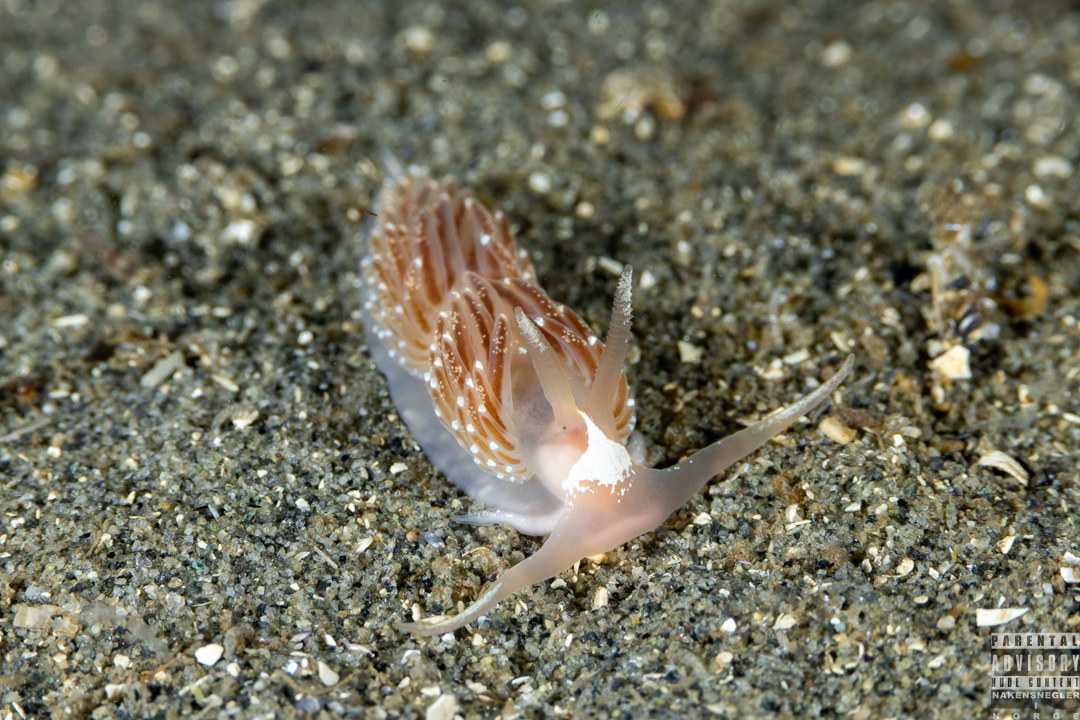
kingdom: Animalia
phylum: Mollusca
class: Gastropoda
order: Nudibranchia
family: Facelinidae
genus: Facelina
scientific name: Facelina bostoniensis
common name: Boston facelina
